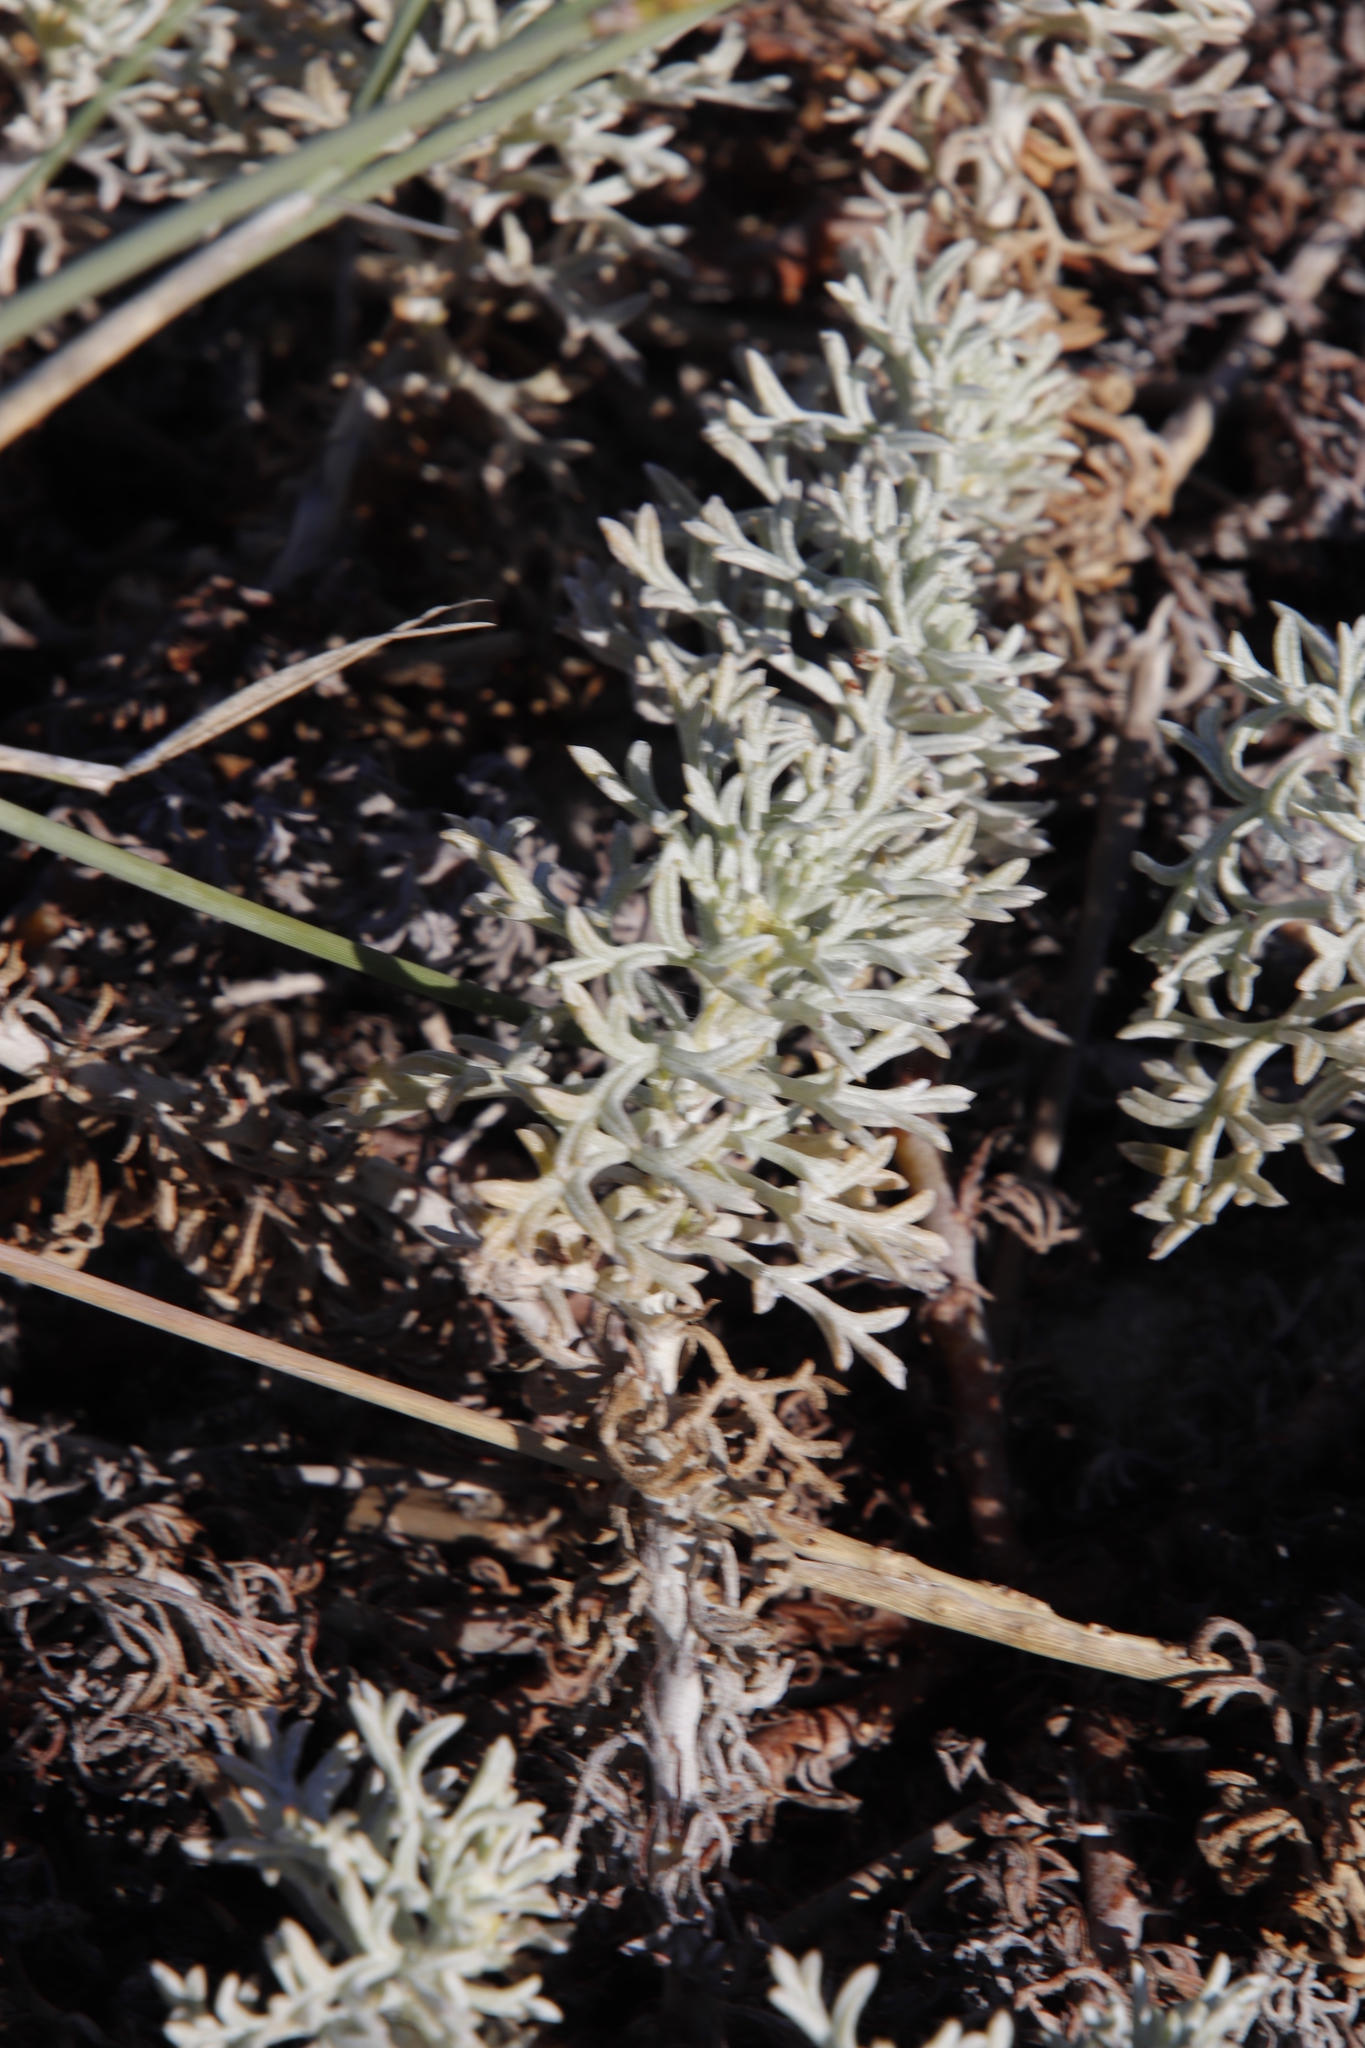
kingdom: Plantae
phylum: Tracheophyta
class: Magnoliopsida
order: Malvales
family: Neuradaceae
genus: Grielum
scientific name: Grielum grandiflorum
